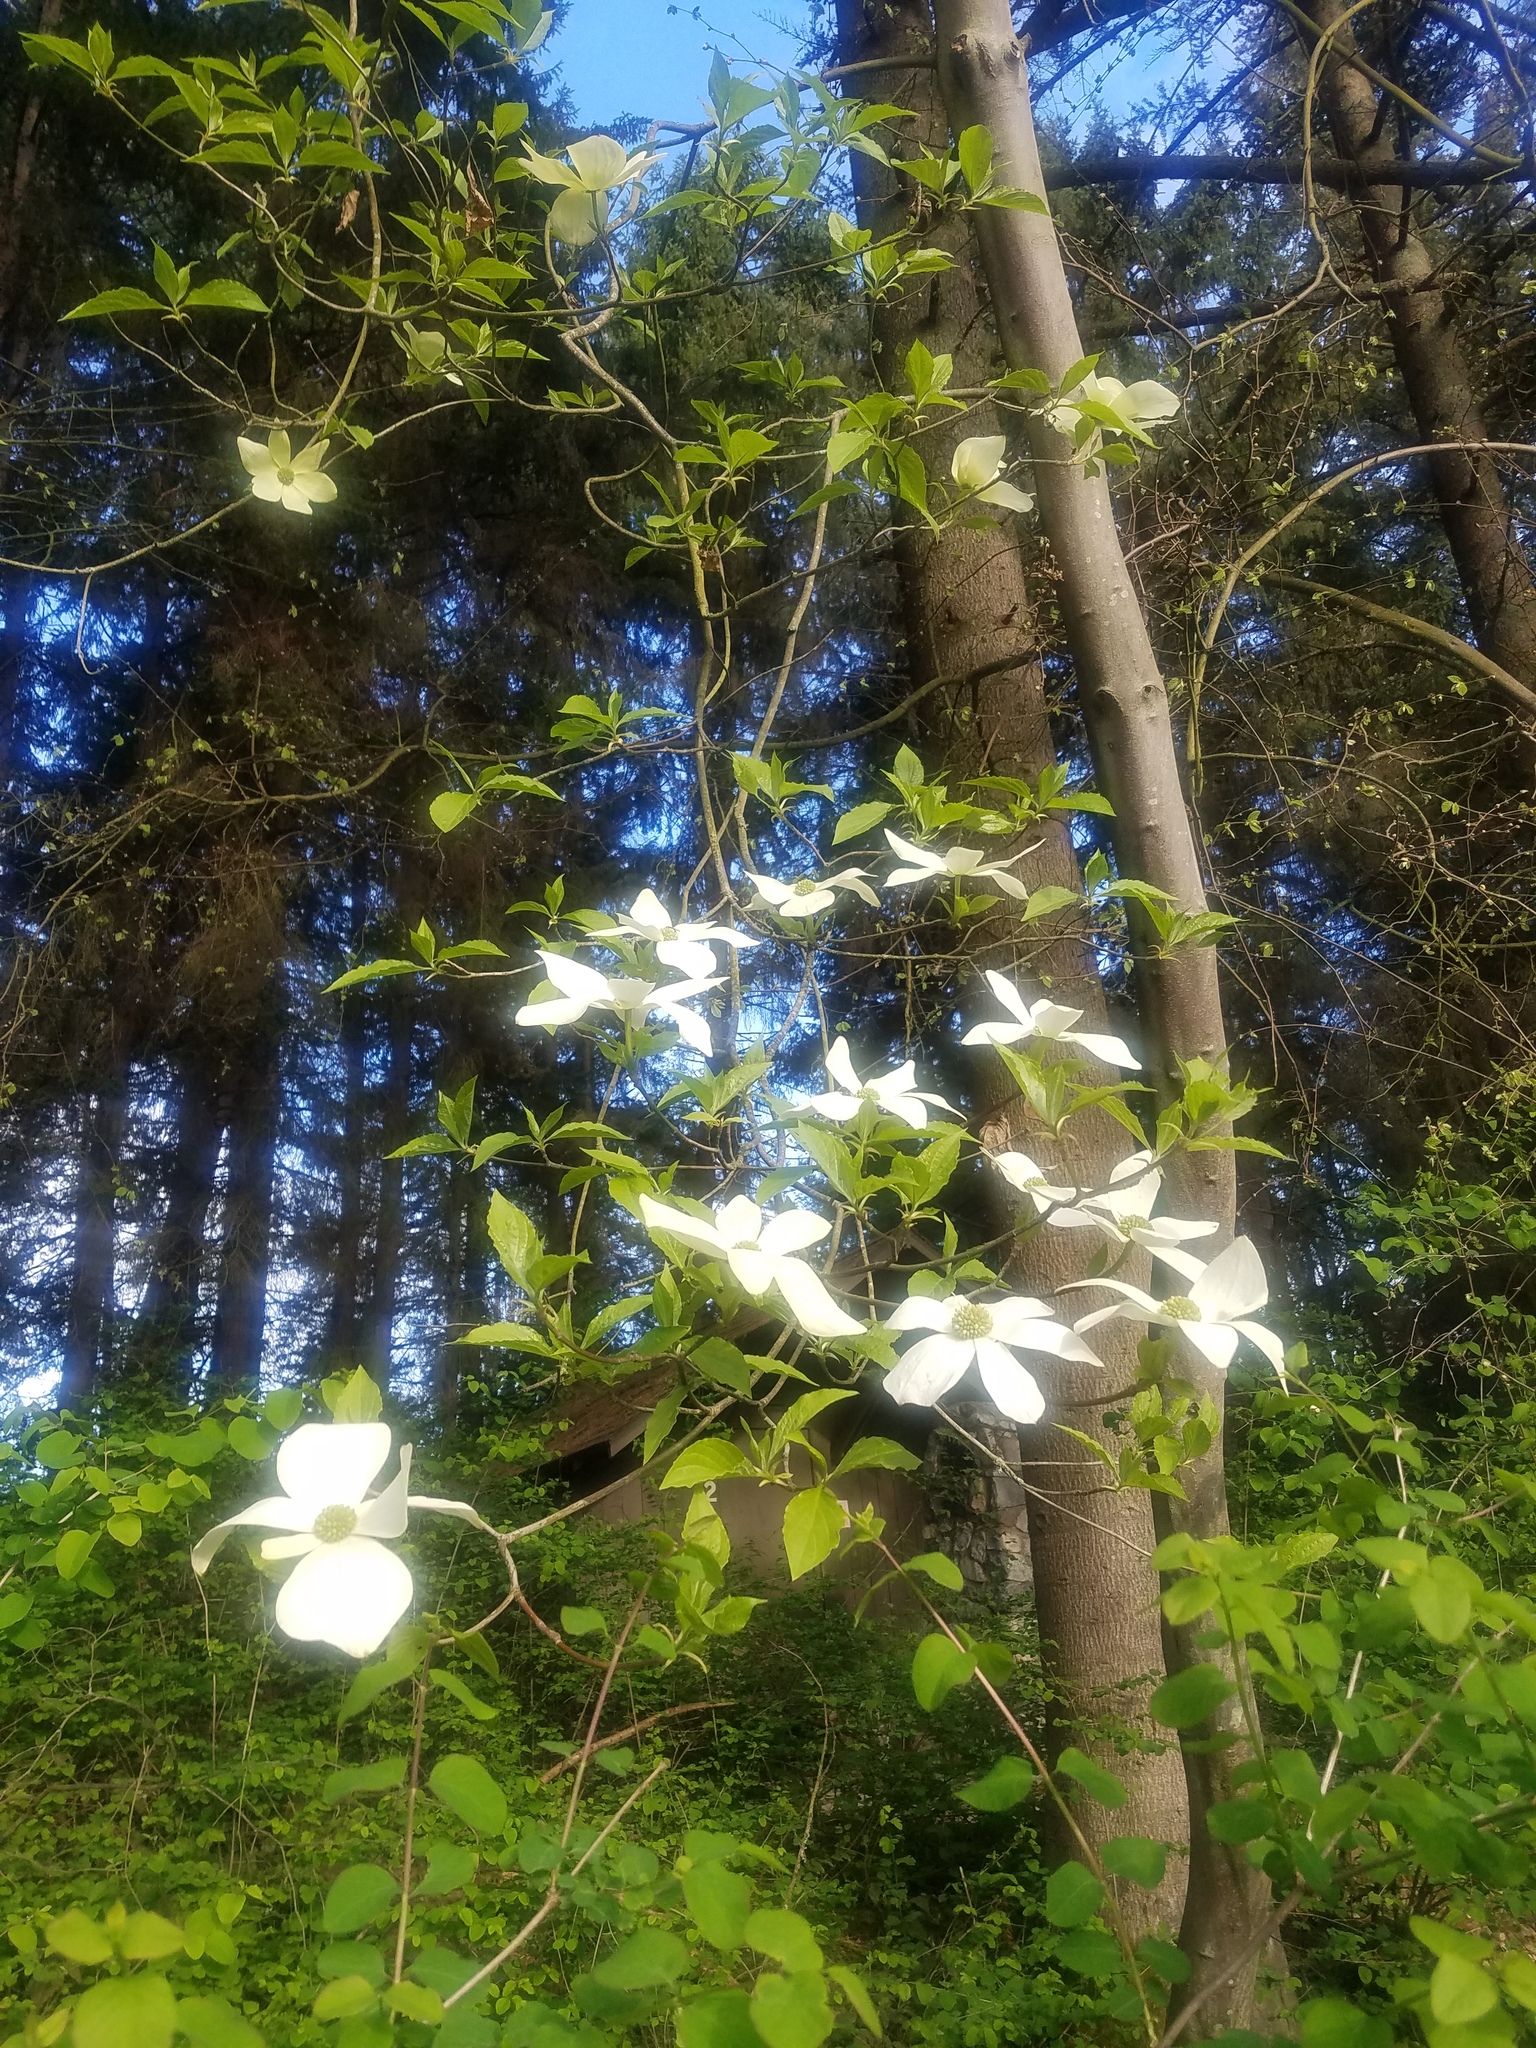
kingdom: Plantae
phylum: Tracheophyta
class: Magnoliopsida
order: Cornales
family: Cornaceae
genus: Cornus
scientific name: Cornus nuttallii
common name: Pacific dogwood
